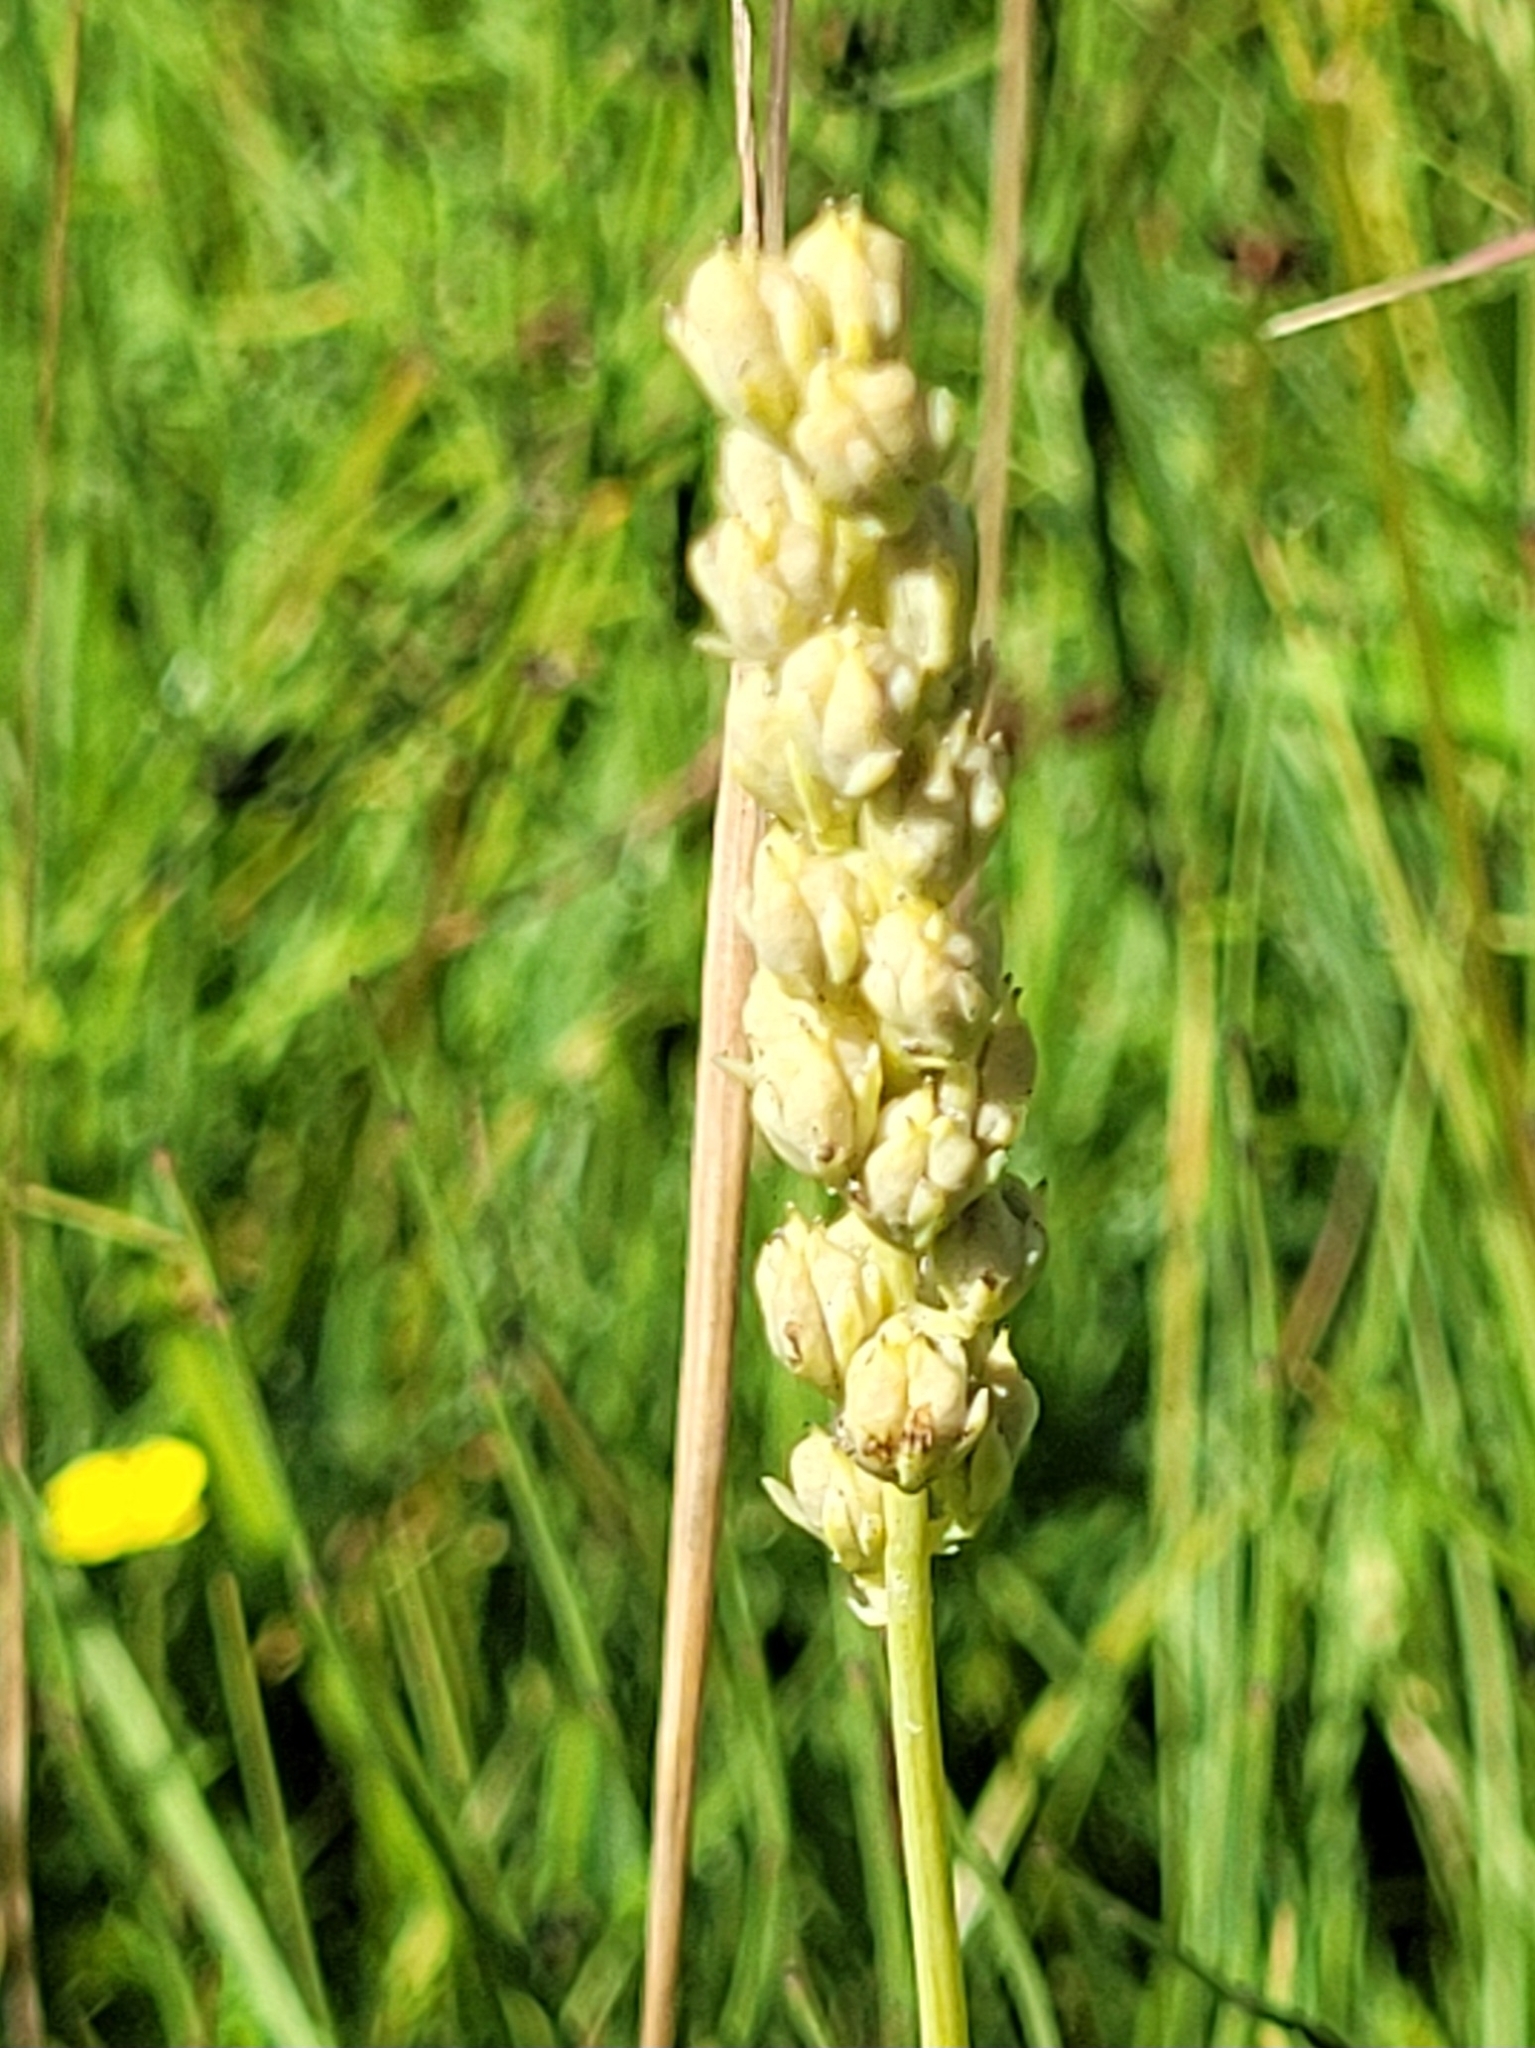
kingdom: Plantae
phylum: Tracheophyta
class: Liliopsida
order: Alismatales
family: Tofieldiaceae
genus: Tofieldia
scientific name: Tofieldia calyculata
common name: German-asphodel
